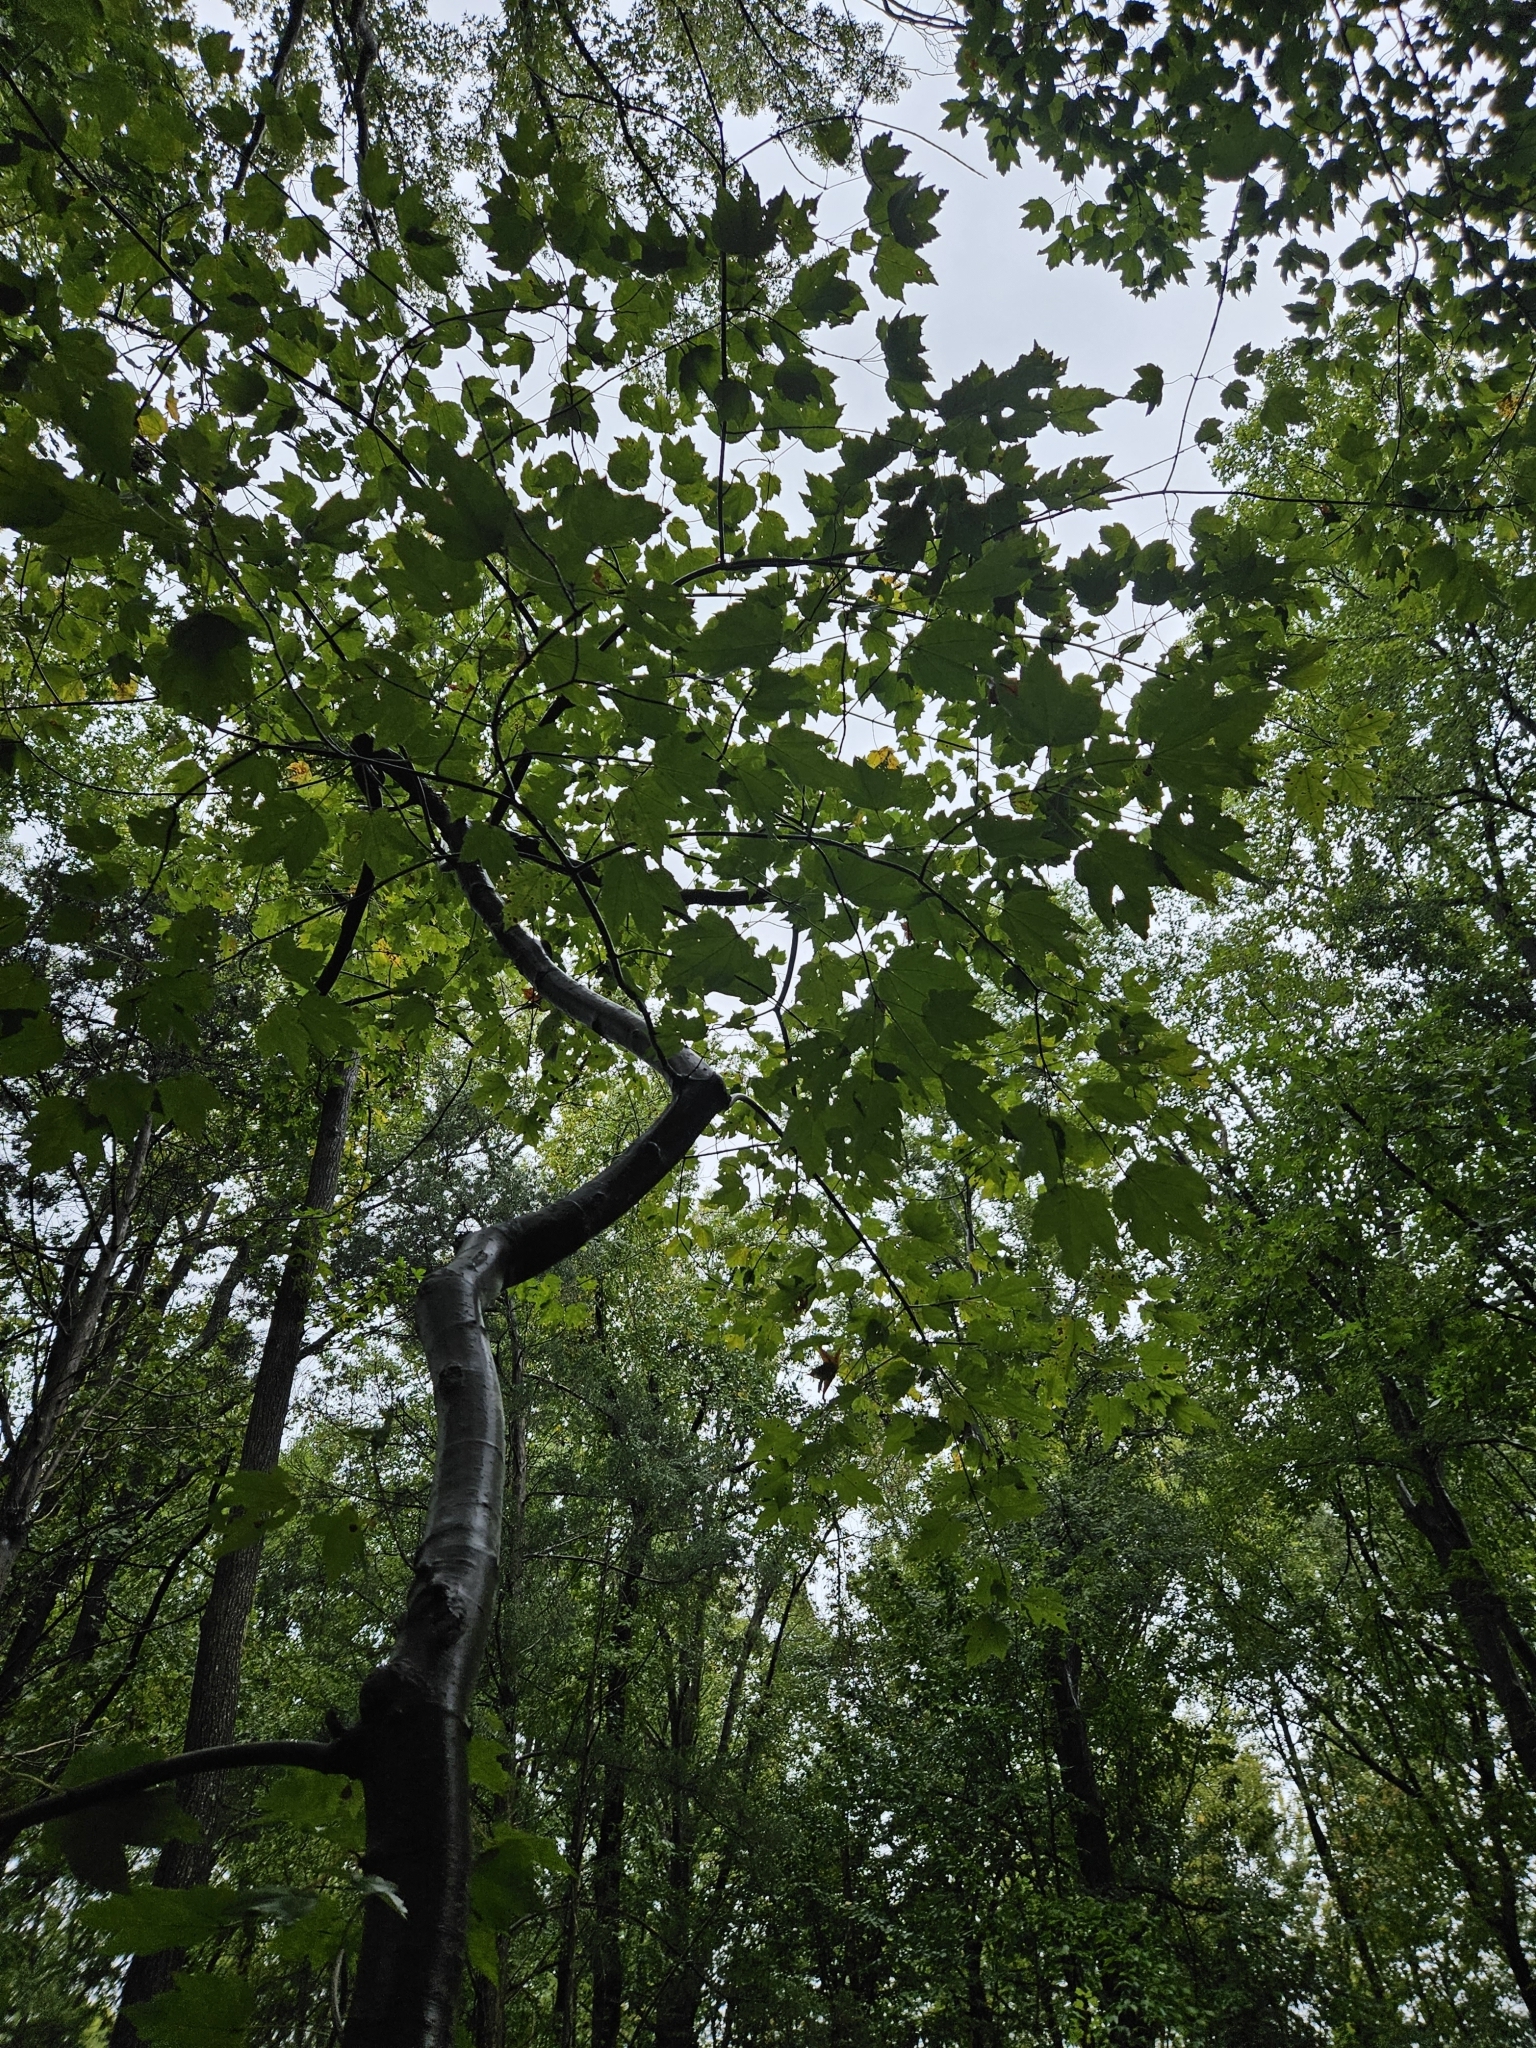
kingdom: Plantae
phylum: Tracheophyta
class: Magnoliopsida
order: Sapindales
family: Sapindaceae
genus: Acer
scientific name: Acer rubrum
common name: Red maple
